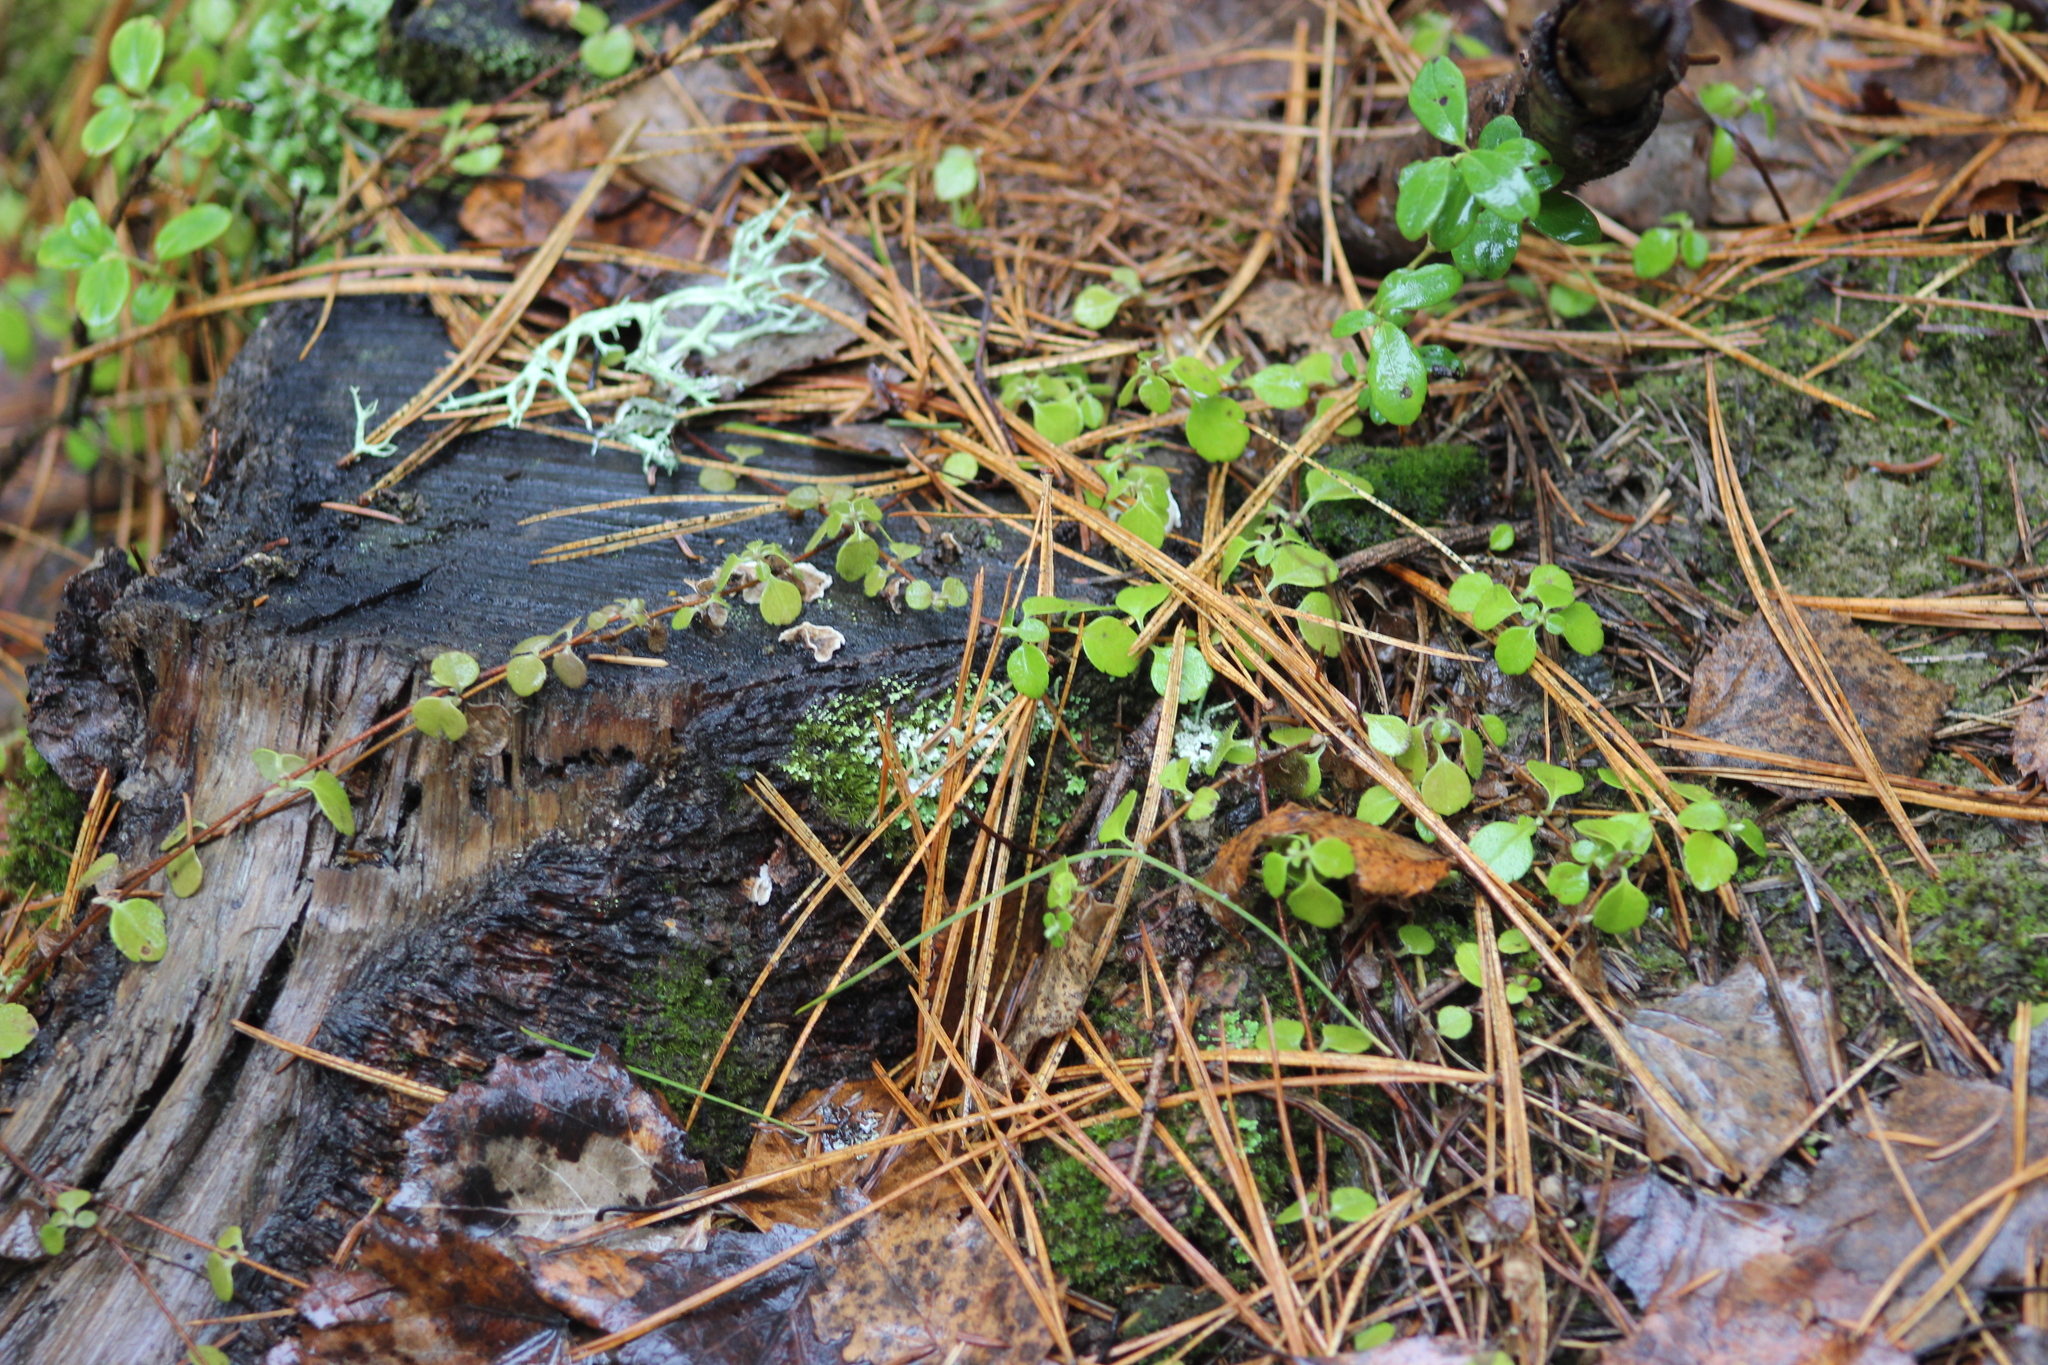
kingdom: Plantae
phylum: Tracheophyta
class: Magnoliopsida
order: Dipsacales
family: Caprifoliaceae
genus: Linnaea
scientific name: Linnaea borealis
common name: Twinflower
